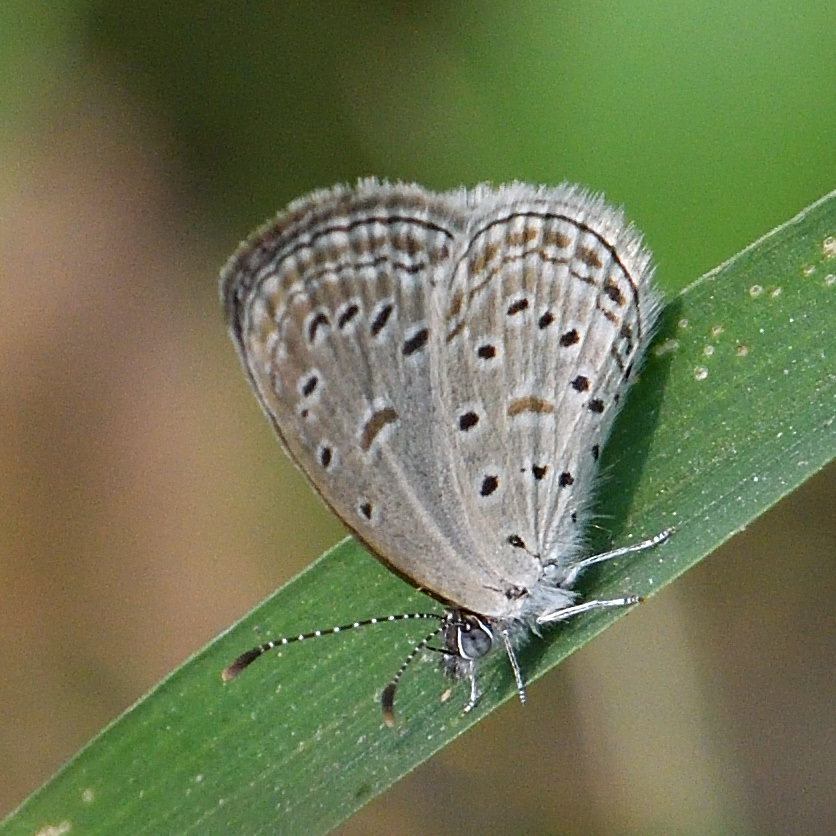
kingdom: Animalia
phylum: Arthropoda
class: Insecta
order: Lepidoptera
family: Lycaenidae
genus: Zizula
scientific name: Zizula hylax
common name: Gaika blue
